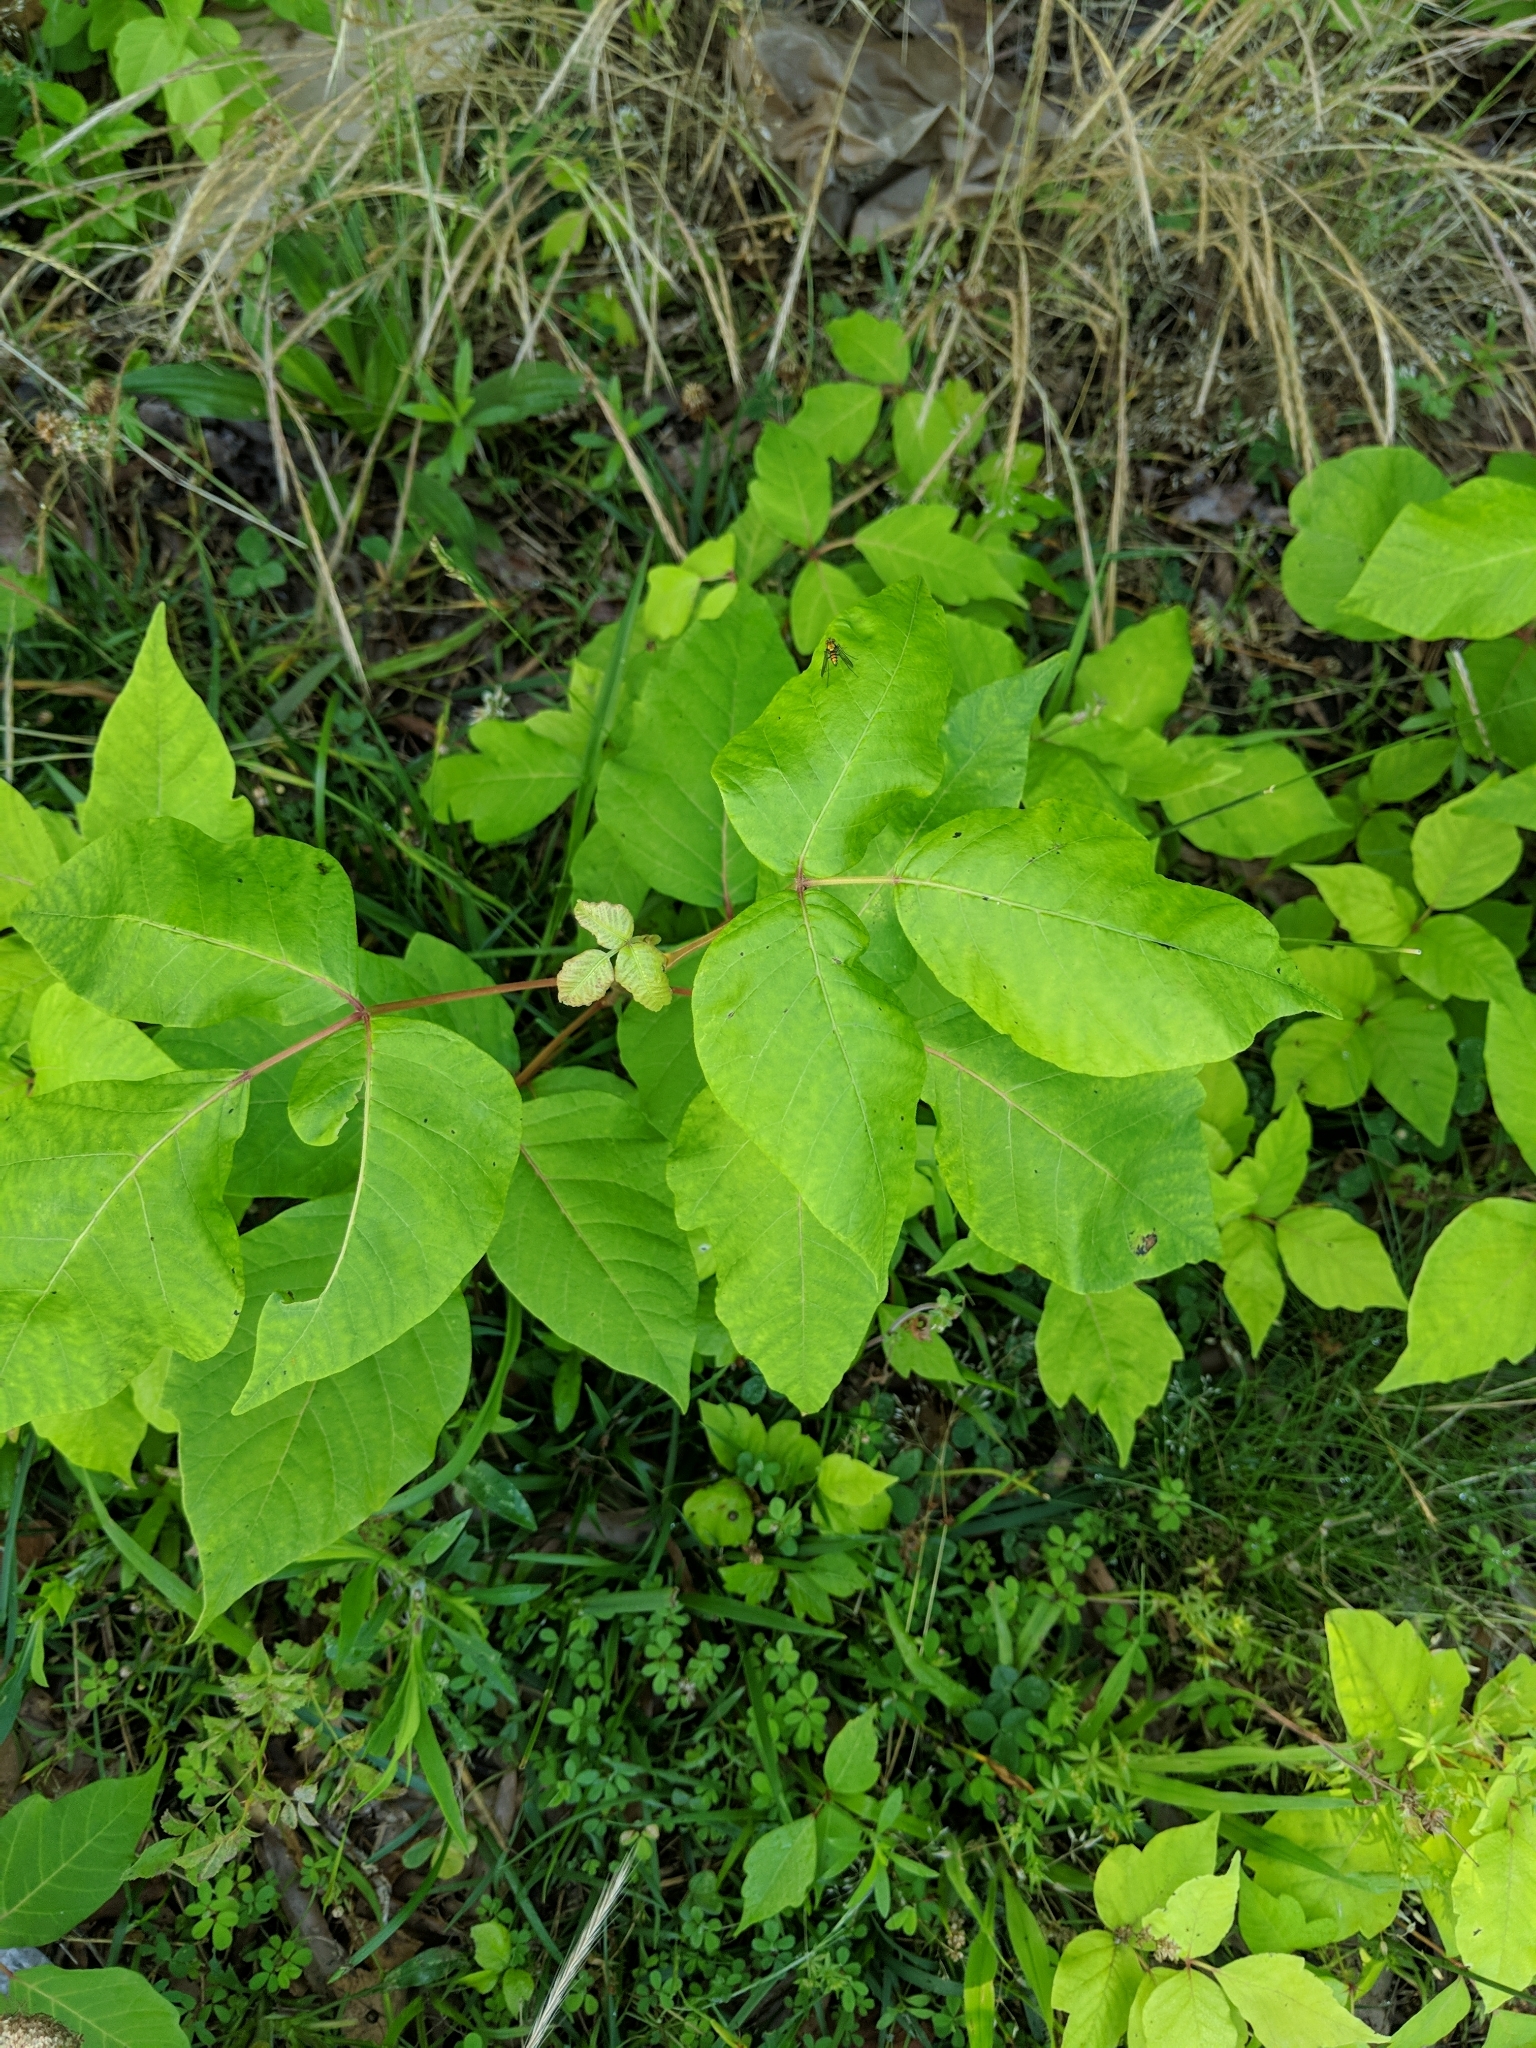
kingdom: Plantae
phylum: Tracheophyta
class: Magnoliopsida
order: Sapindales
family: Anacardiaceae
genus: Toxicodendron
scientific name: Toxicodendron radicans
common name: Poison ivy
